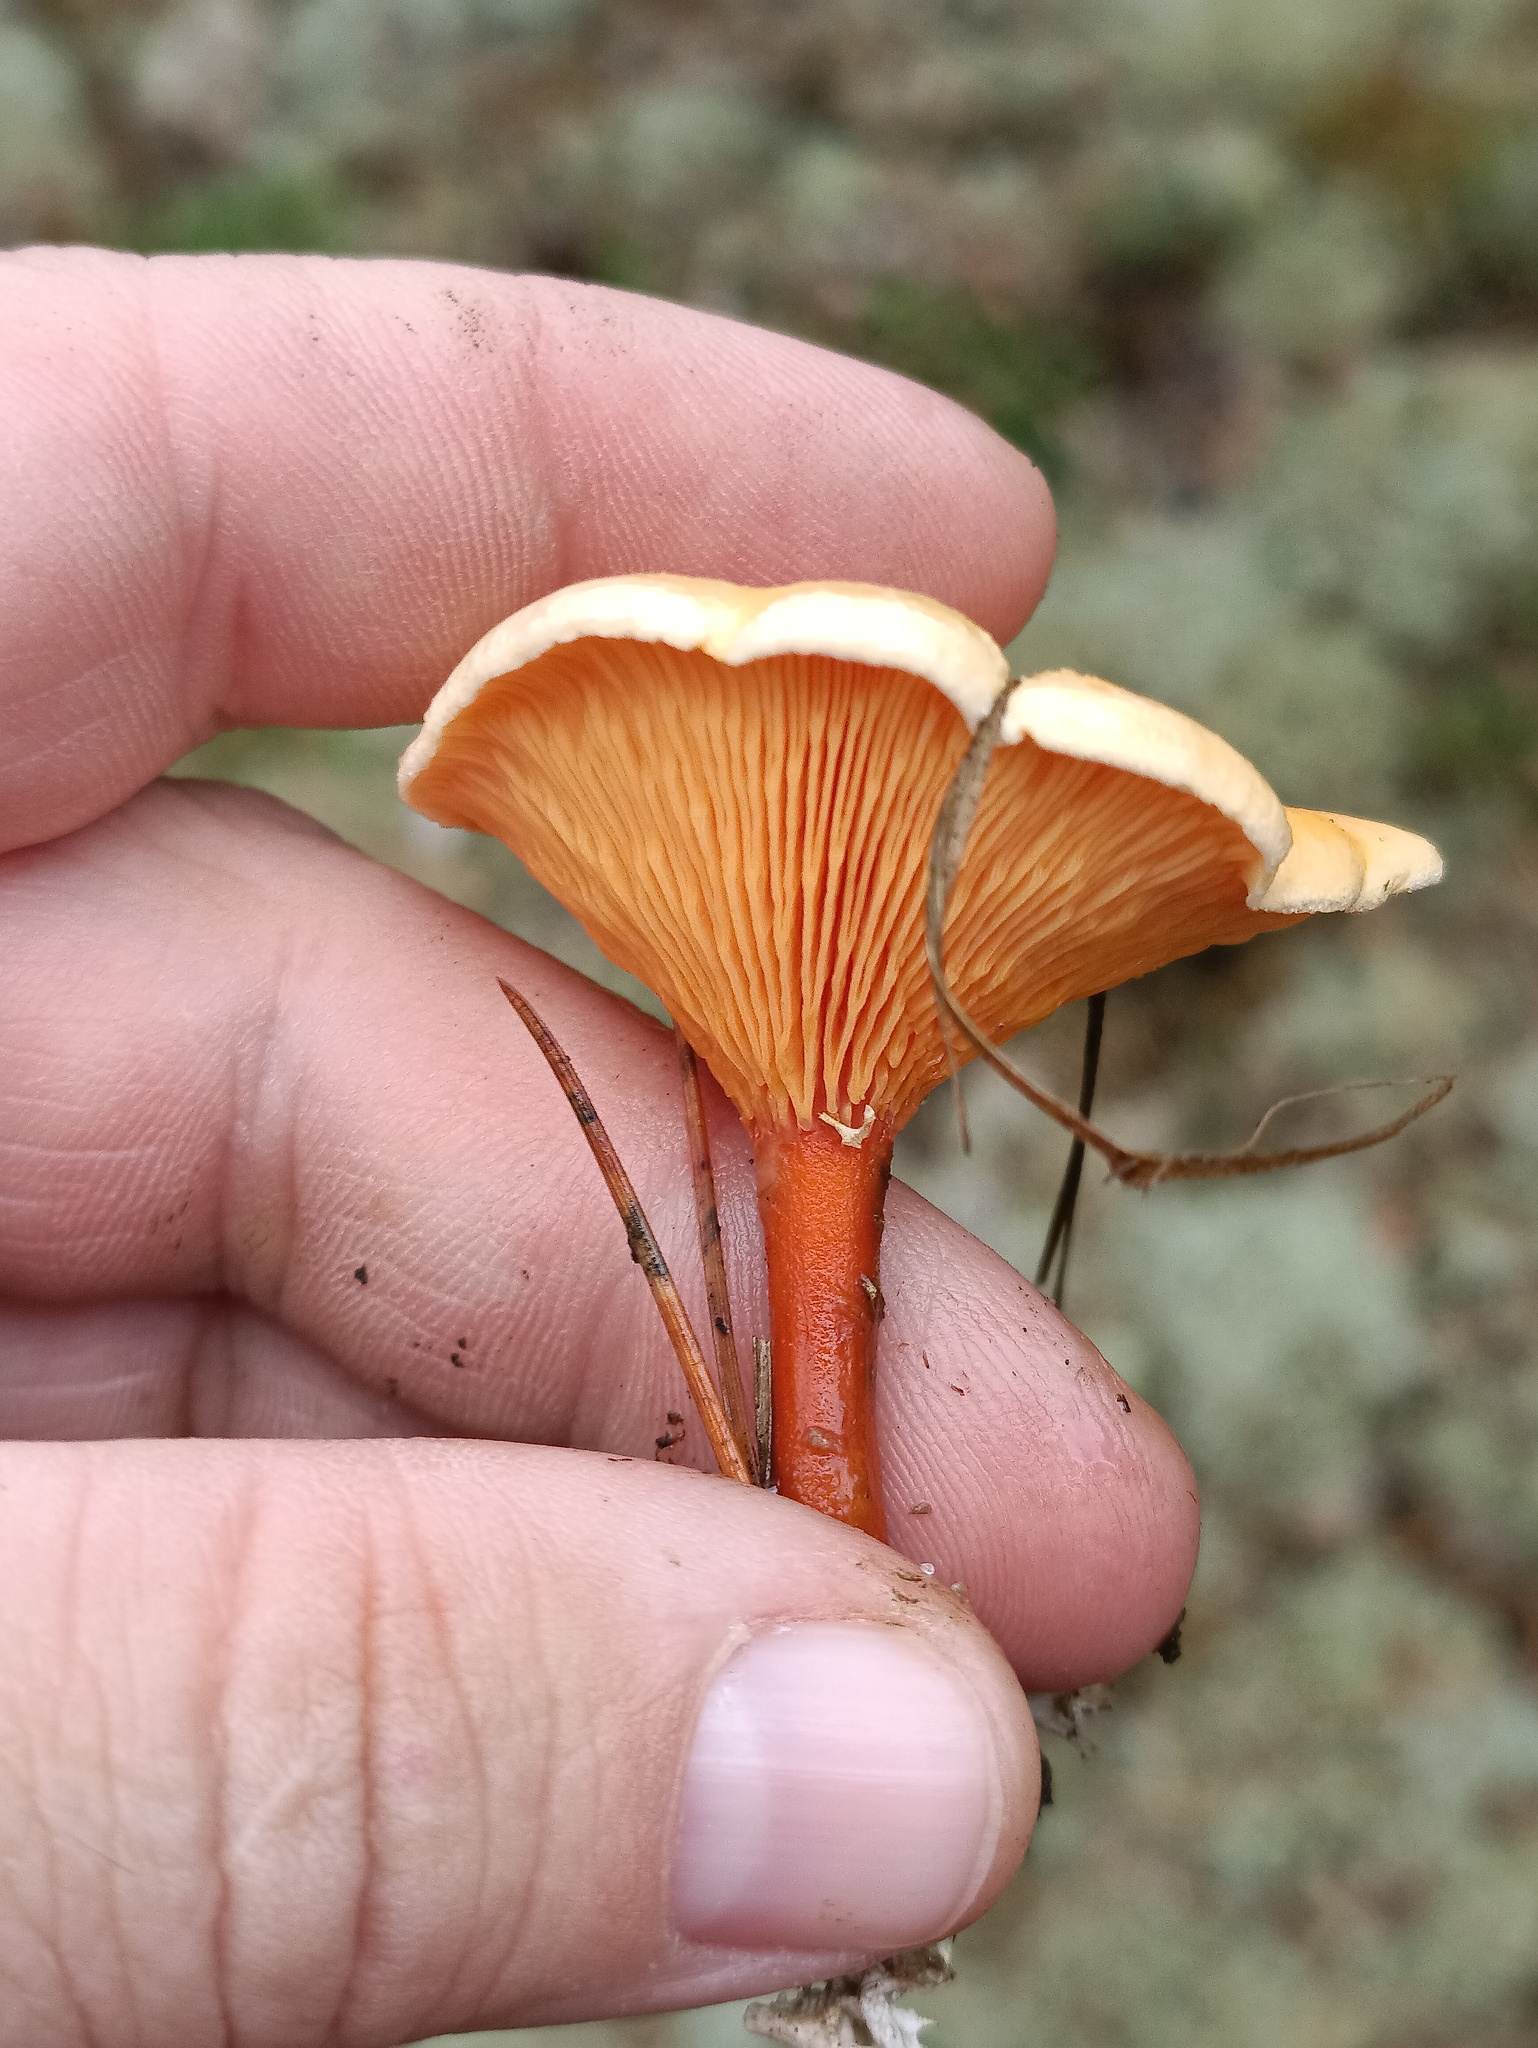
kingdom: Fungi
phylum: Basidiomycota
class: Agaricomycetes
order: Boletales
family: Hygrophoropsidaceae
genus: Hygrophoropsis
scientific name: Hygrophoropsis aurantiaca
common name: False chanterelle
